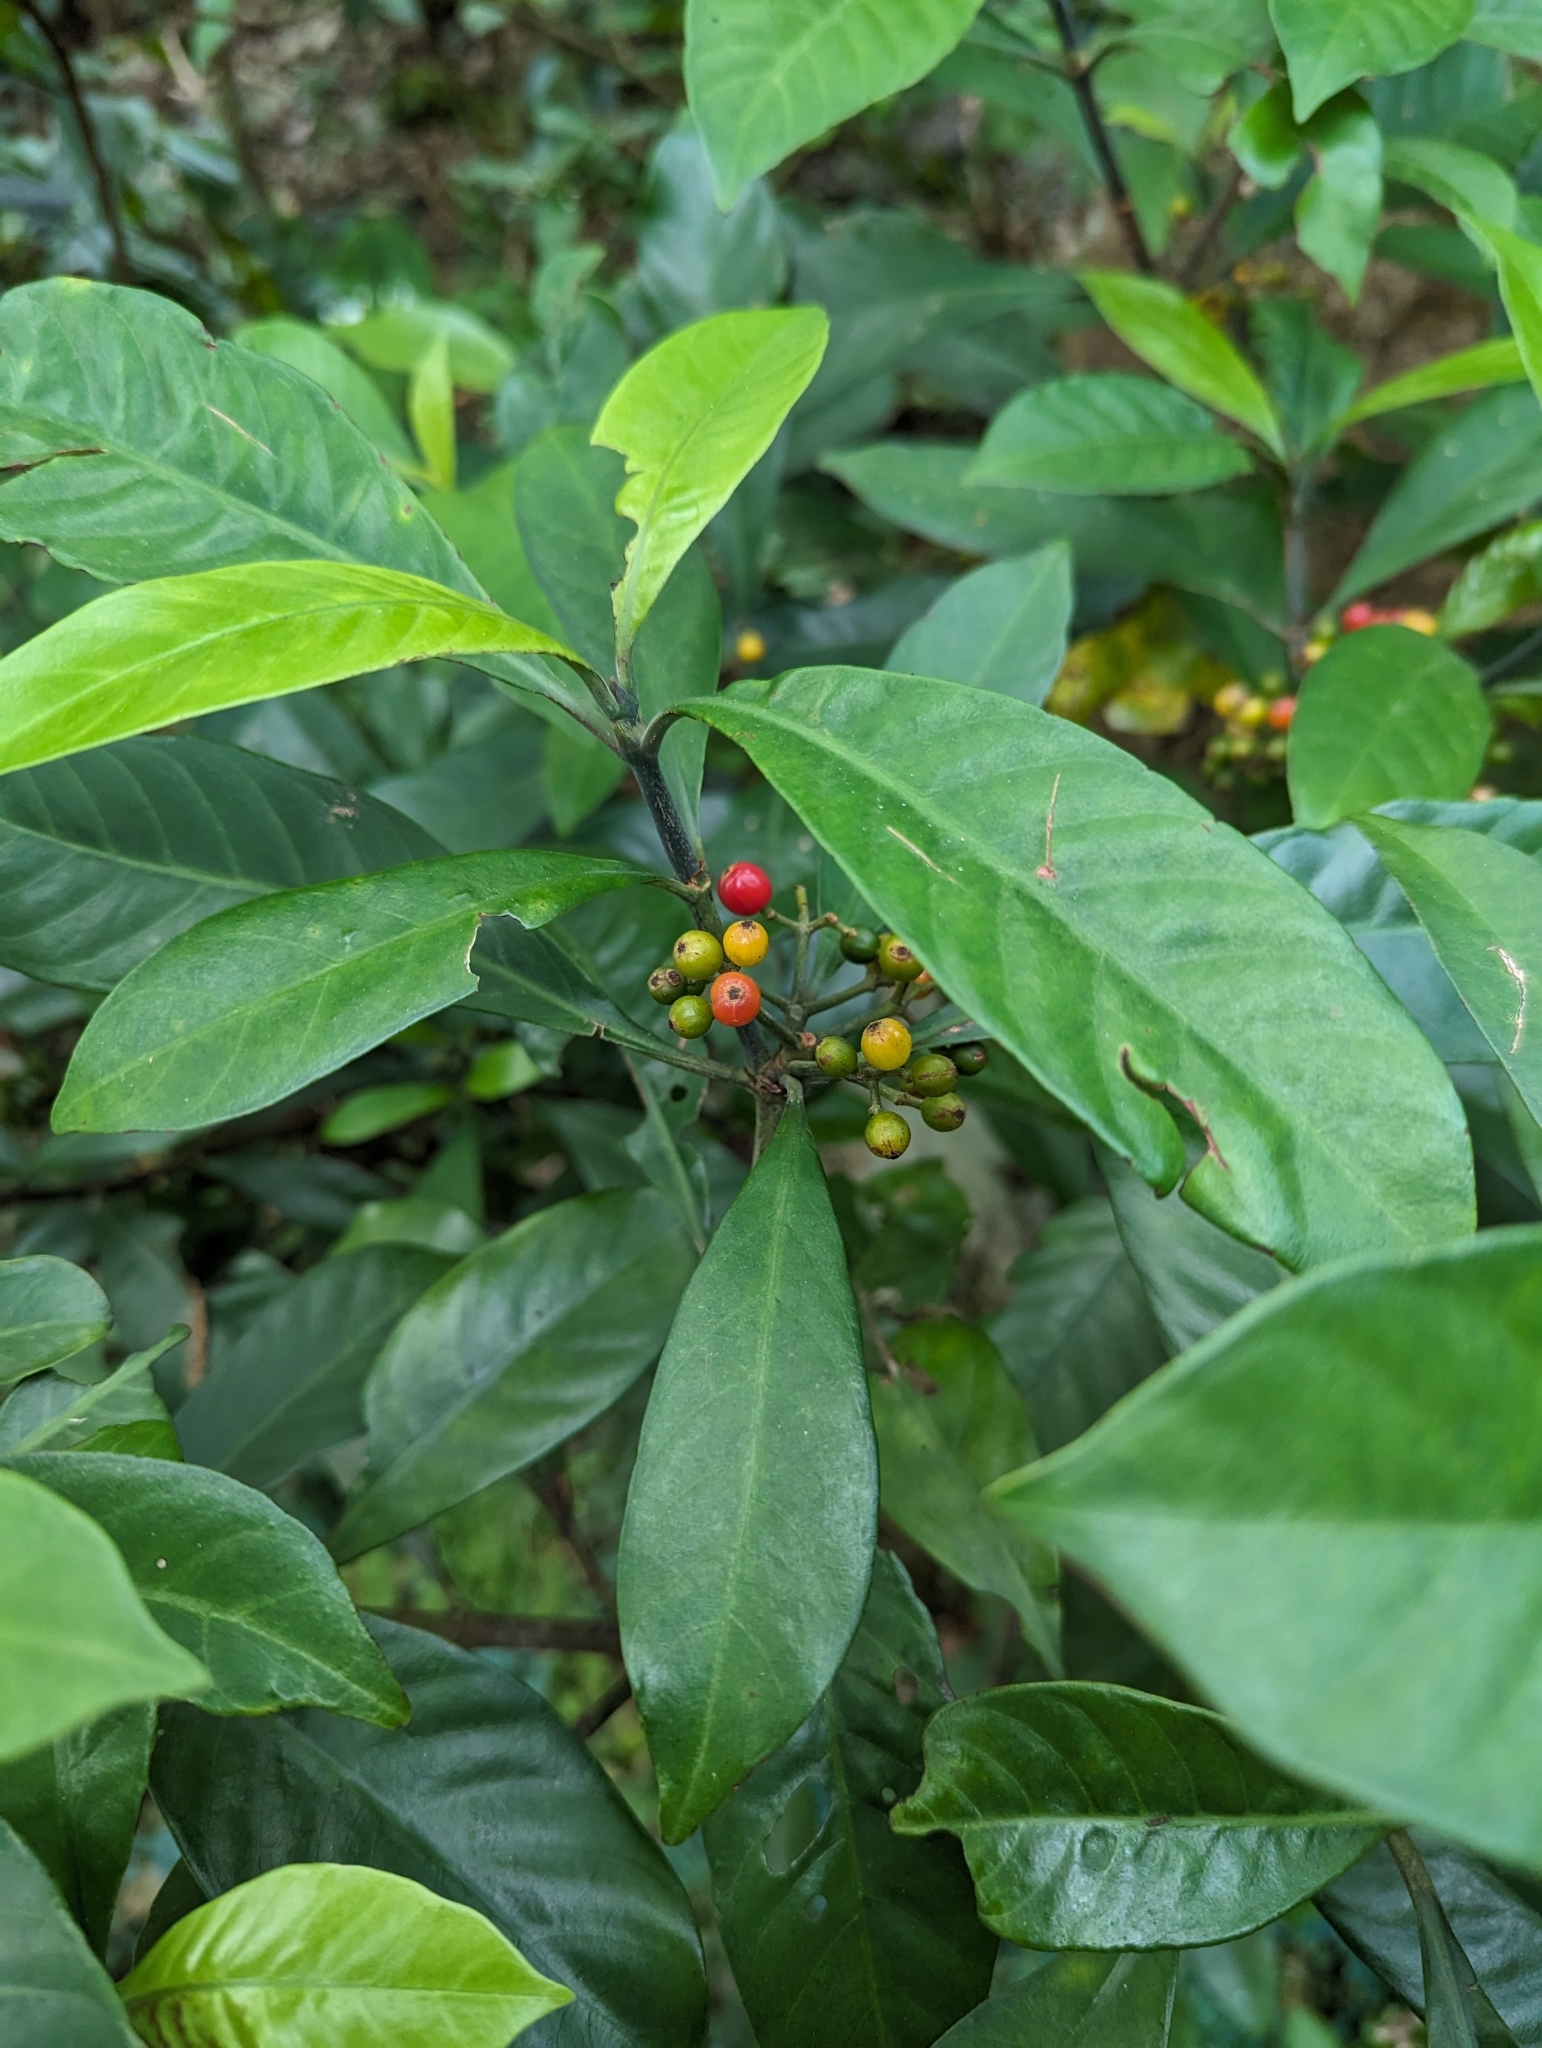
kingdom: Plantae
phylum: Tracheophyta
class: Magnoliopsida
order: Gentianales
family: Rubiaceae
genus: Psychotria
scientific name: Psychotria asiatica
